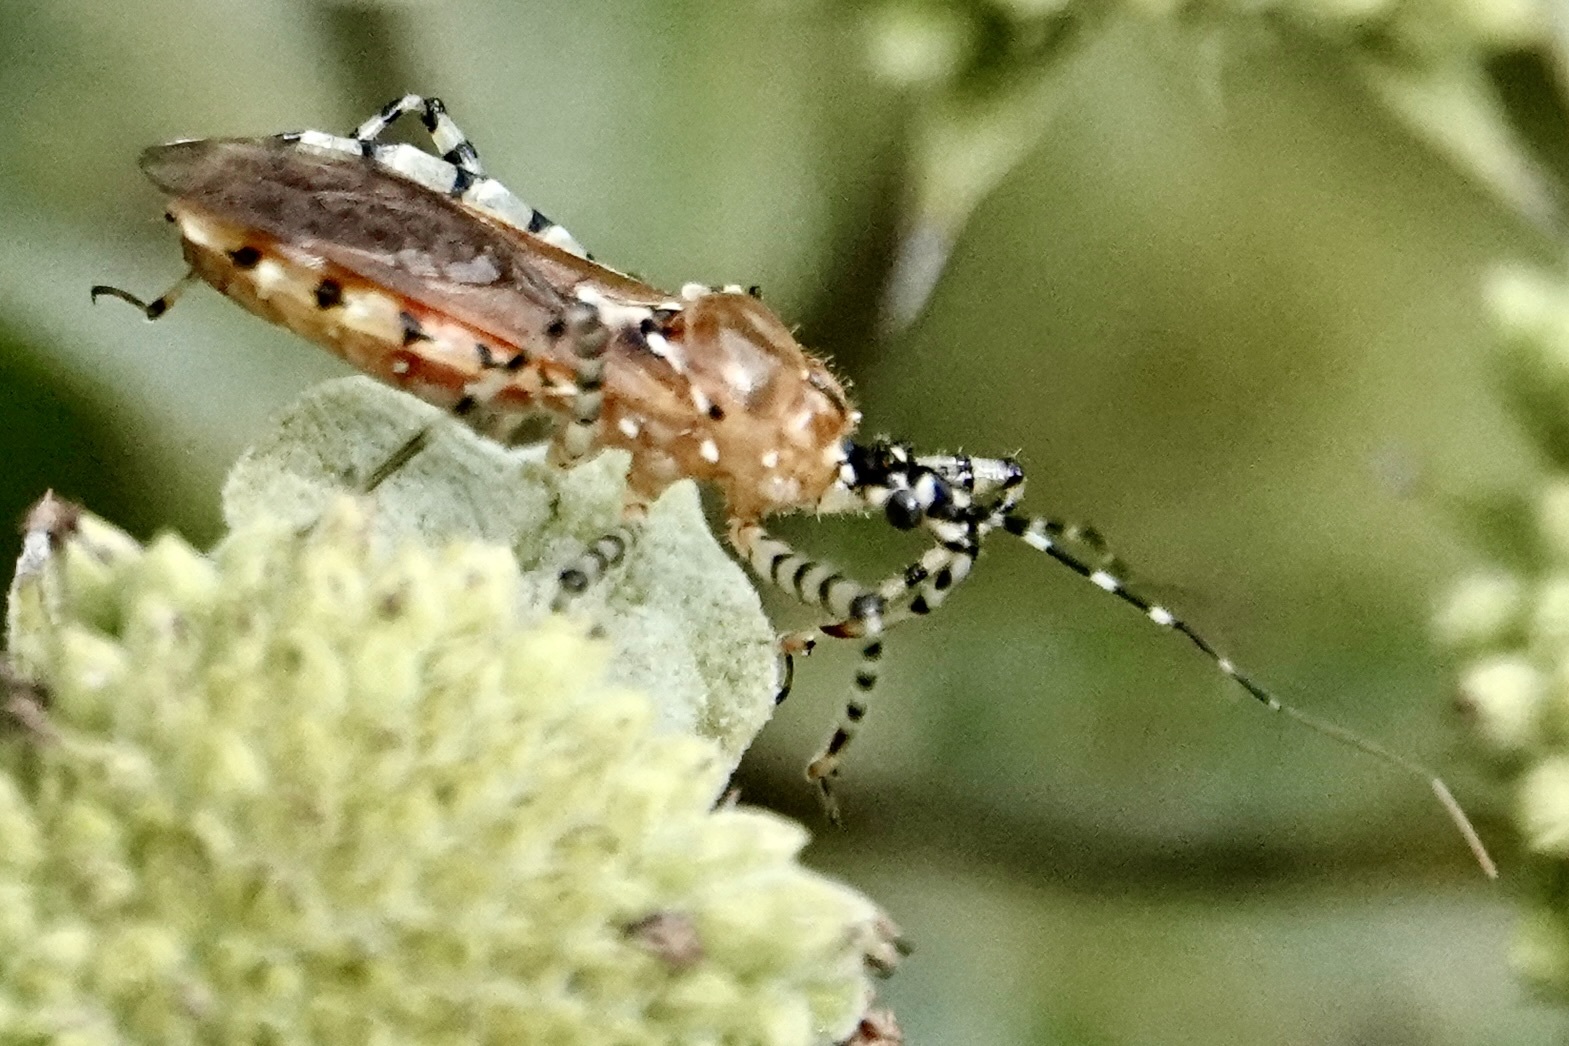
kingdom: Animalia
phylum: Arthropoda
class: Insecta
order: Hemiptera
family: Reduviidae
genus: Pselliopus
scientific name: Pselliopus cinctus
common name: Ringed assassin bug
